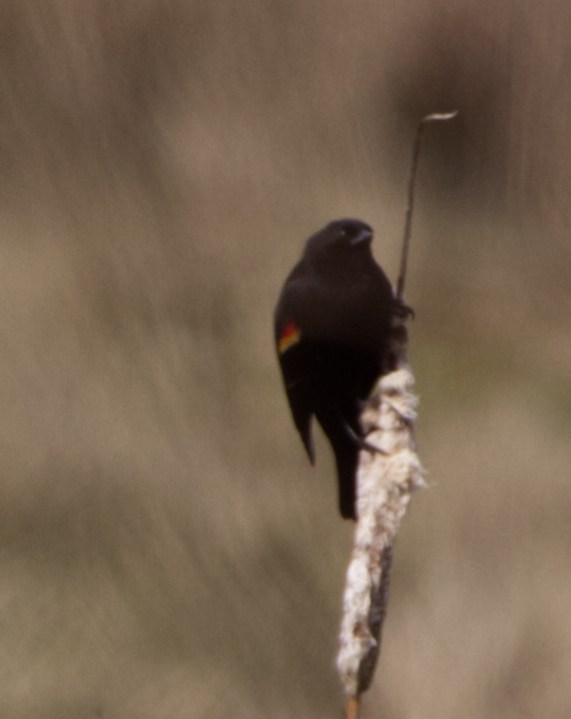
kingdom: Animalia
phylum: Chordata
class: Aves
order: Passeriformes
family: Icteridae
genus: Agelaius
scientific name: Agelaius phoeniceus
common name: Red-winged blackbird
